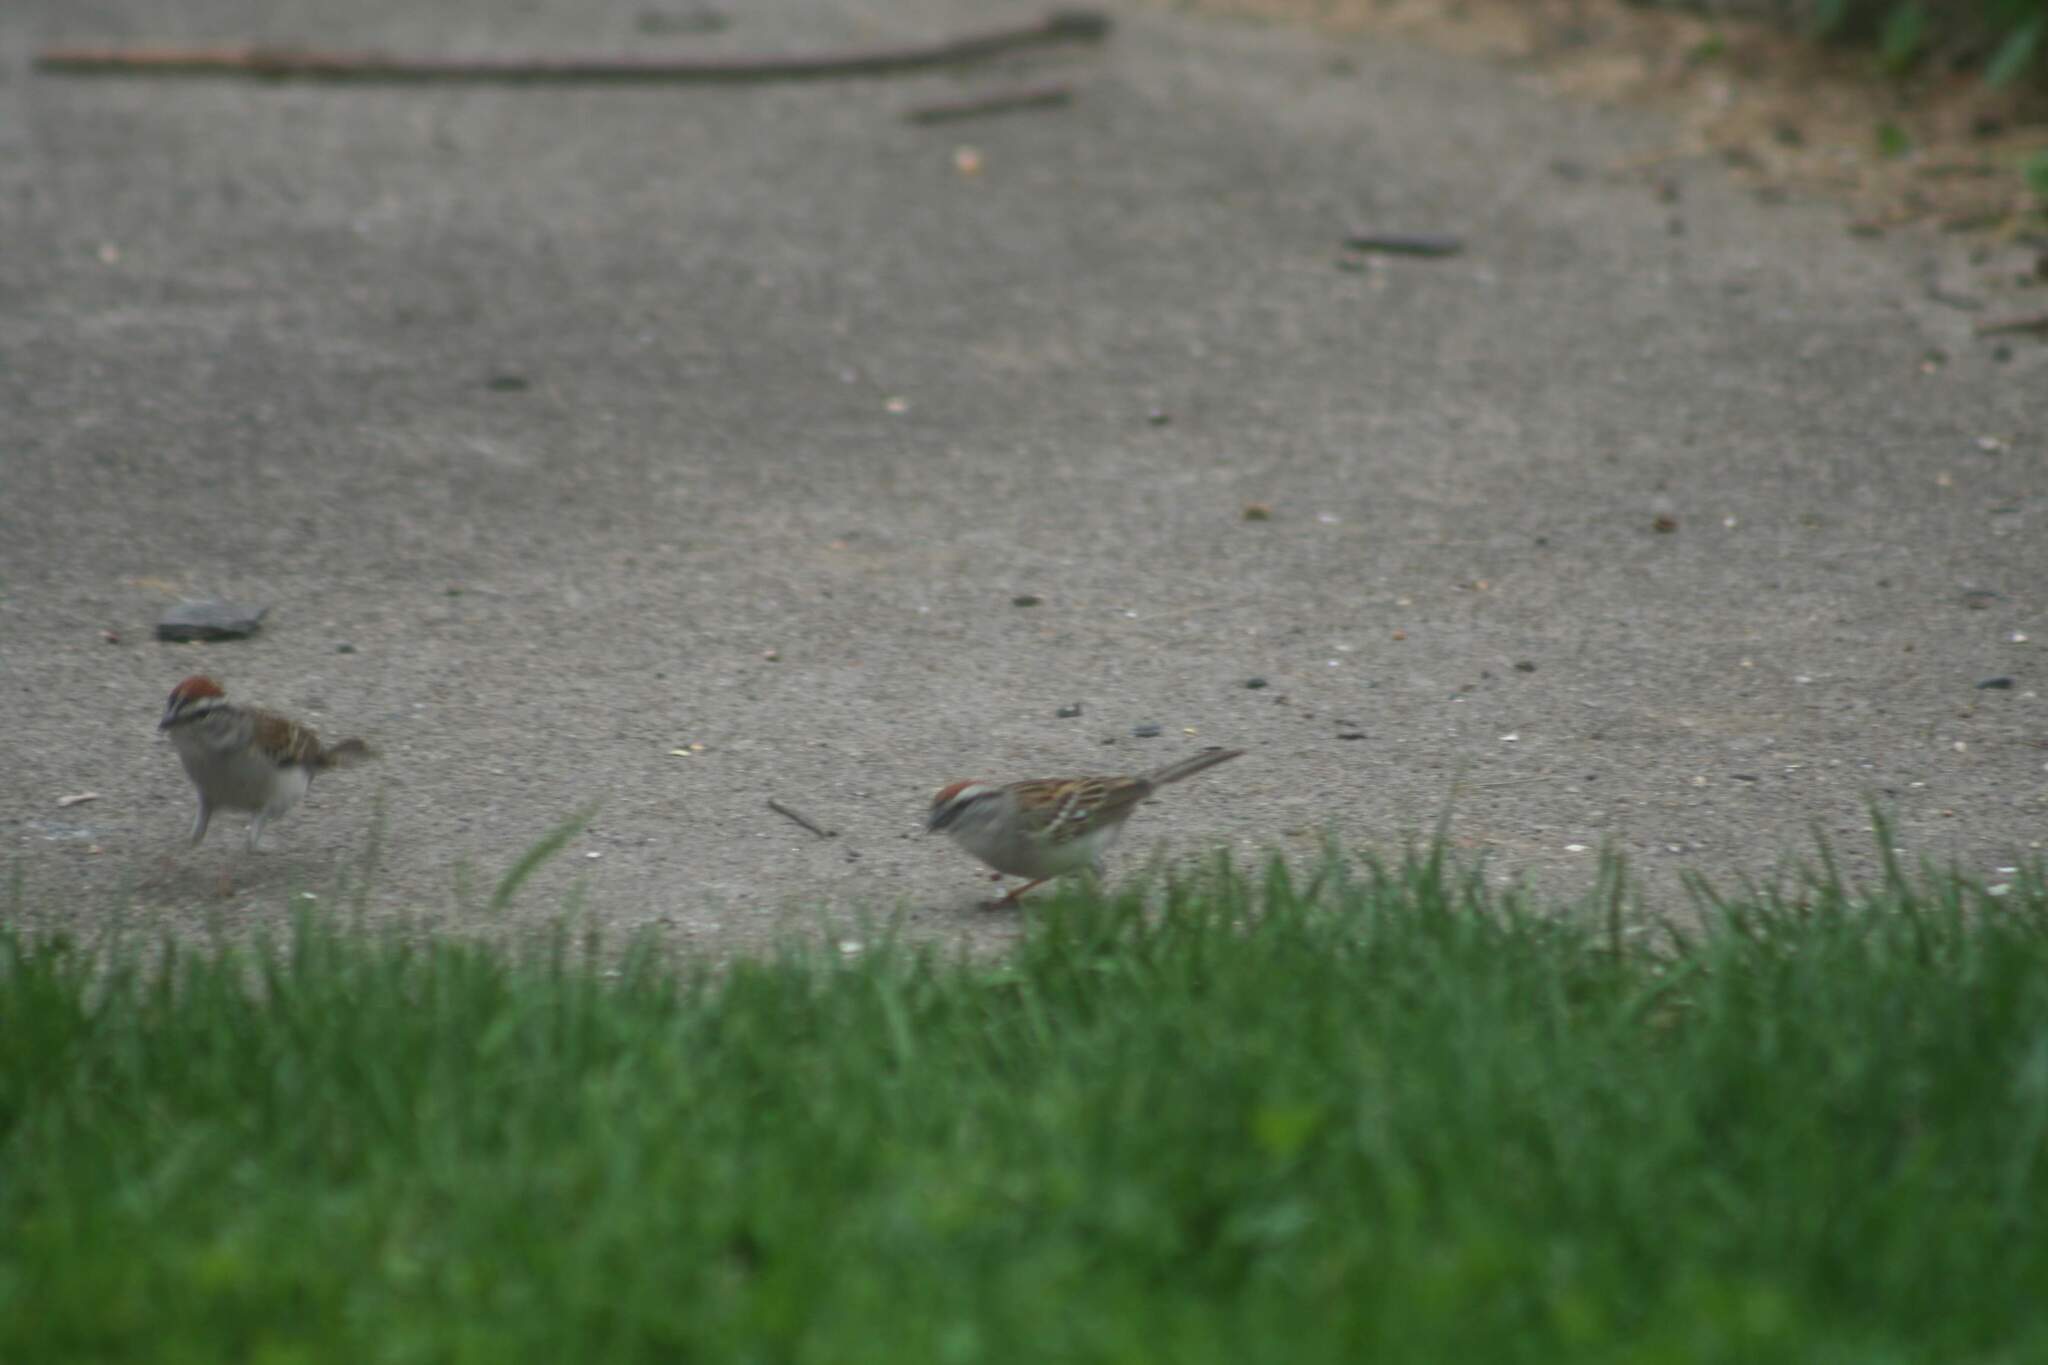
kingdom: Animalia
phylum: Chordata
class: Aves
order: Passeriformes
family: Passerellidae
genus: Spizella
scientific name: Spizella passerina
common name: Chipping sparrow
